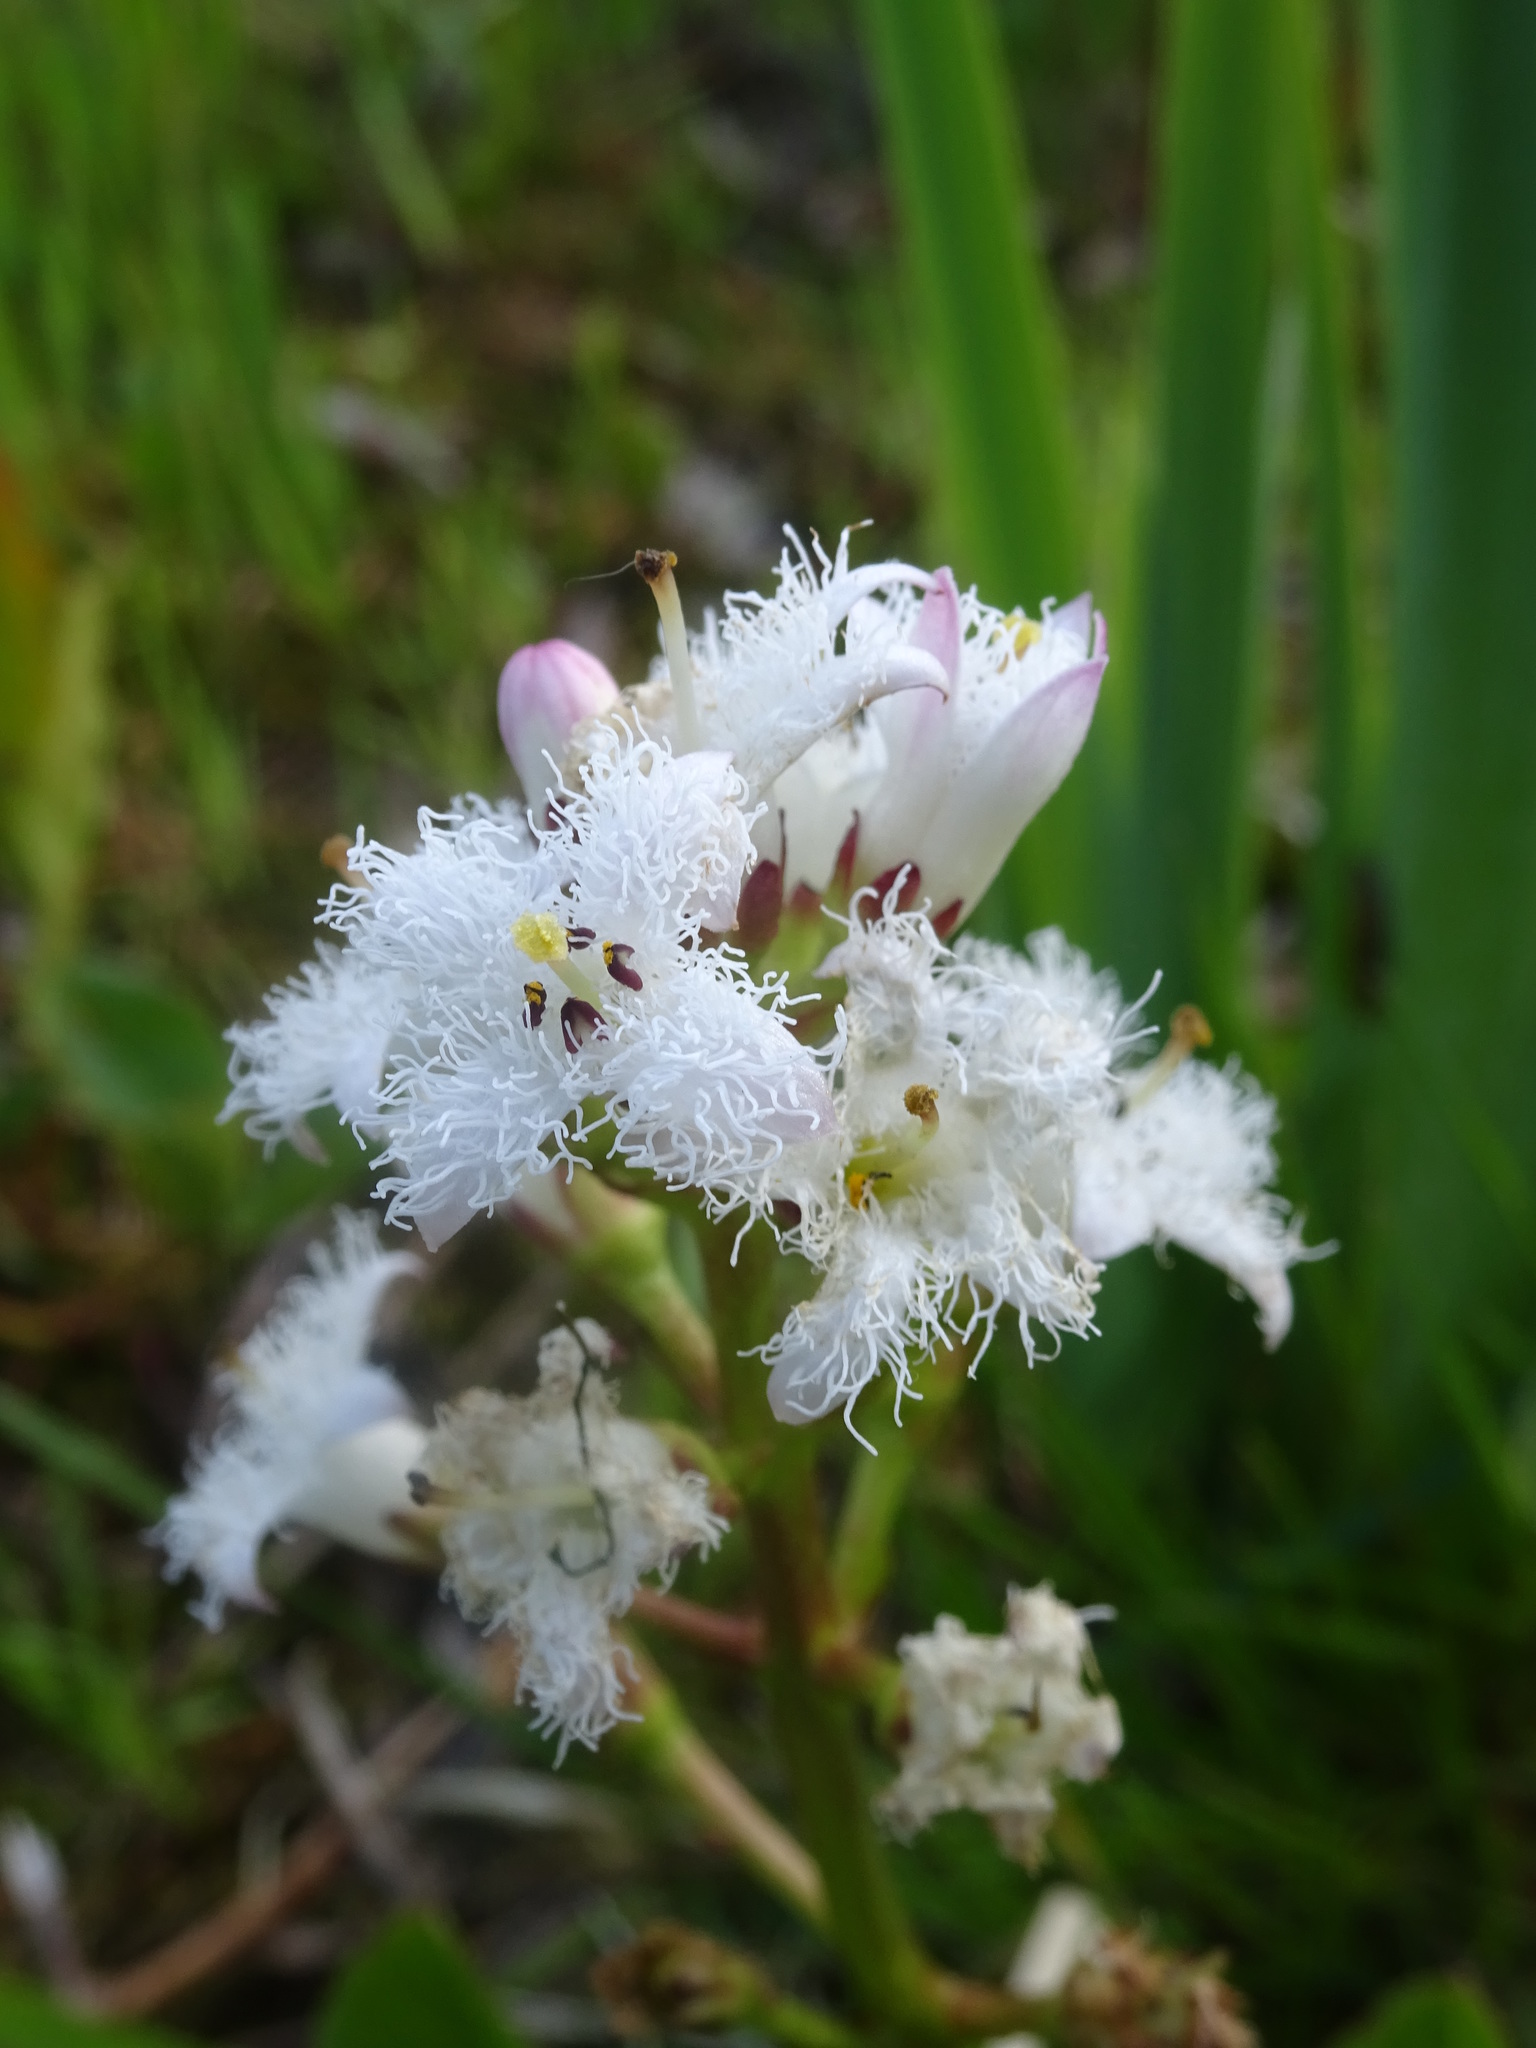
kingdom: Plantae
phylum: Tracheophyta
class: Magnoliopsida
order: Asterales
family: Menyanthaceae
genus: Menyanthes
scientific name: Menyanthes trifoliata
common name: Bogbean
